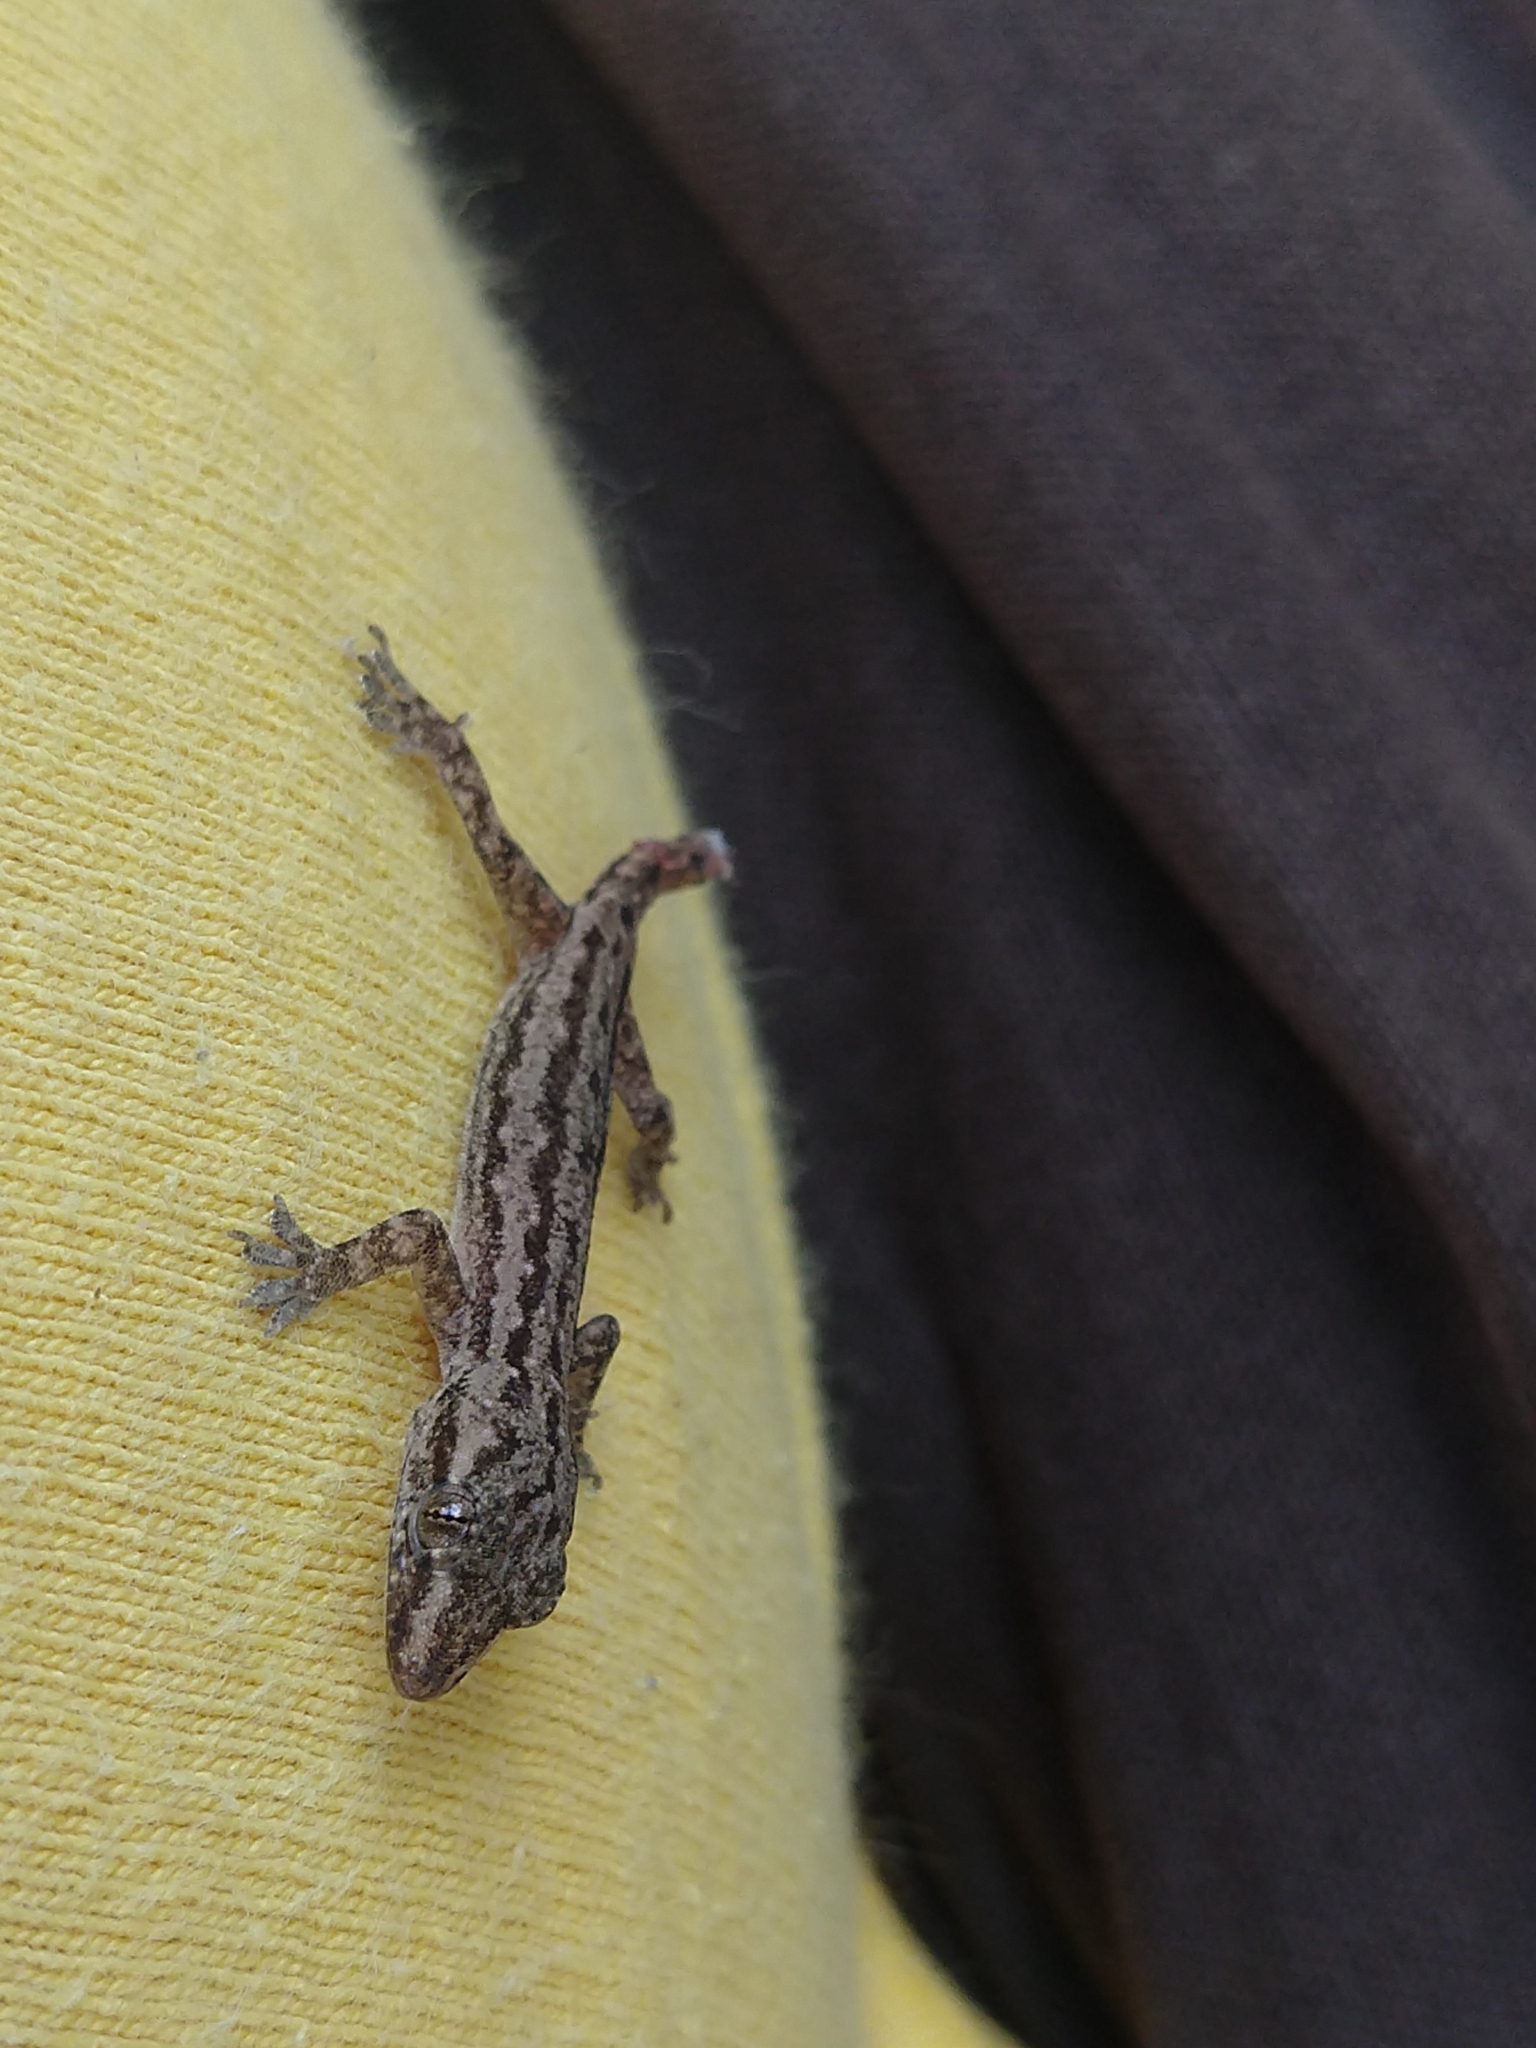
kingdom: Animalia
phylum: Chordata
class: Squamata
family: Gekkonidae
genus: Hemidactylus
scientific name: Hemidactylus frenatus
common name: Common house gecko
